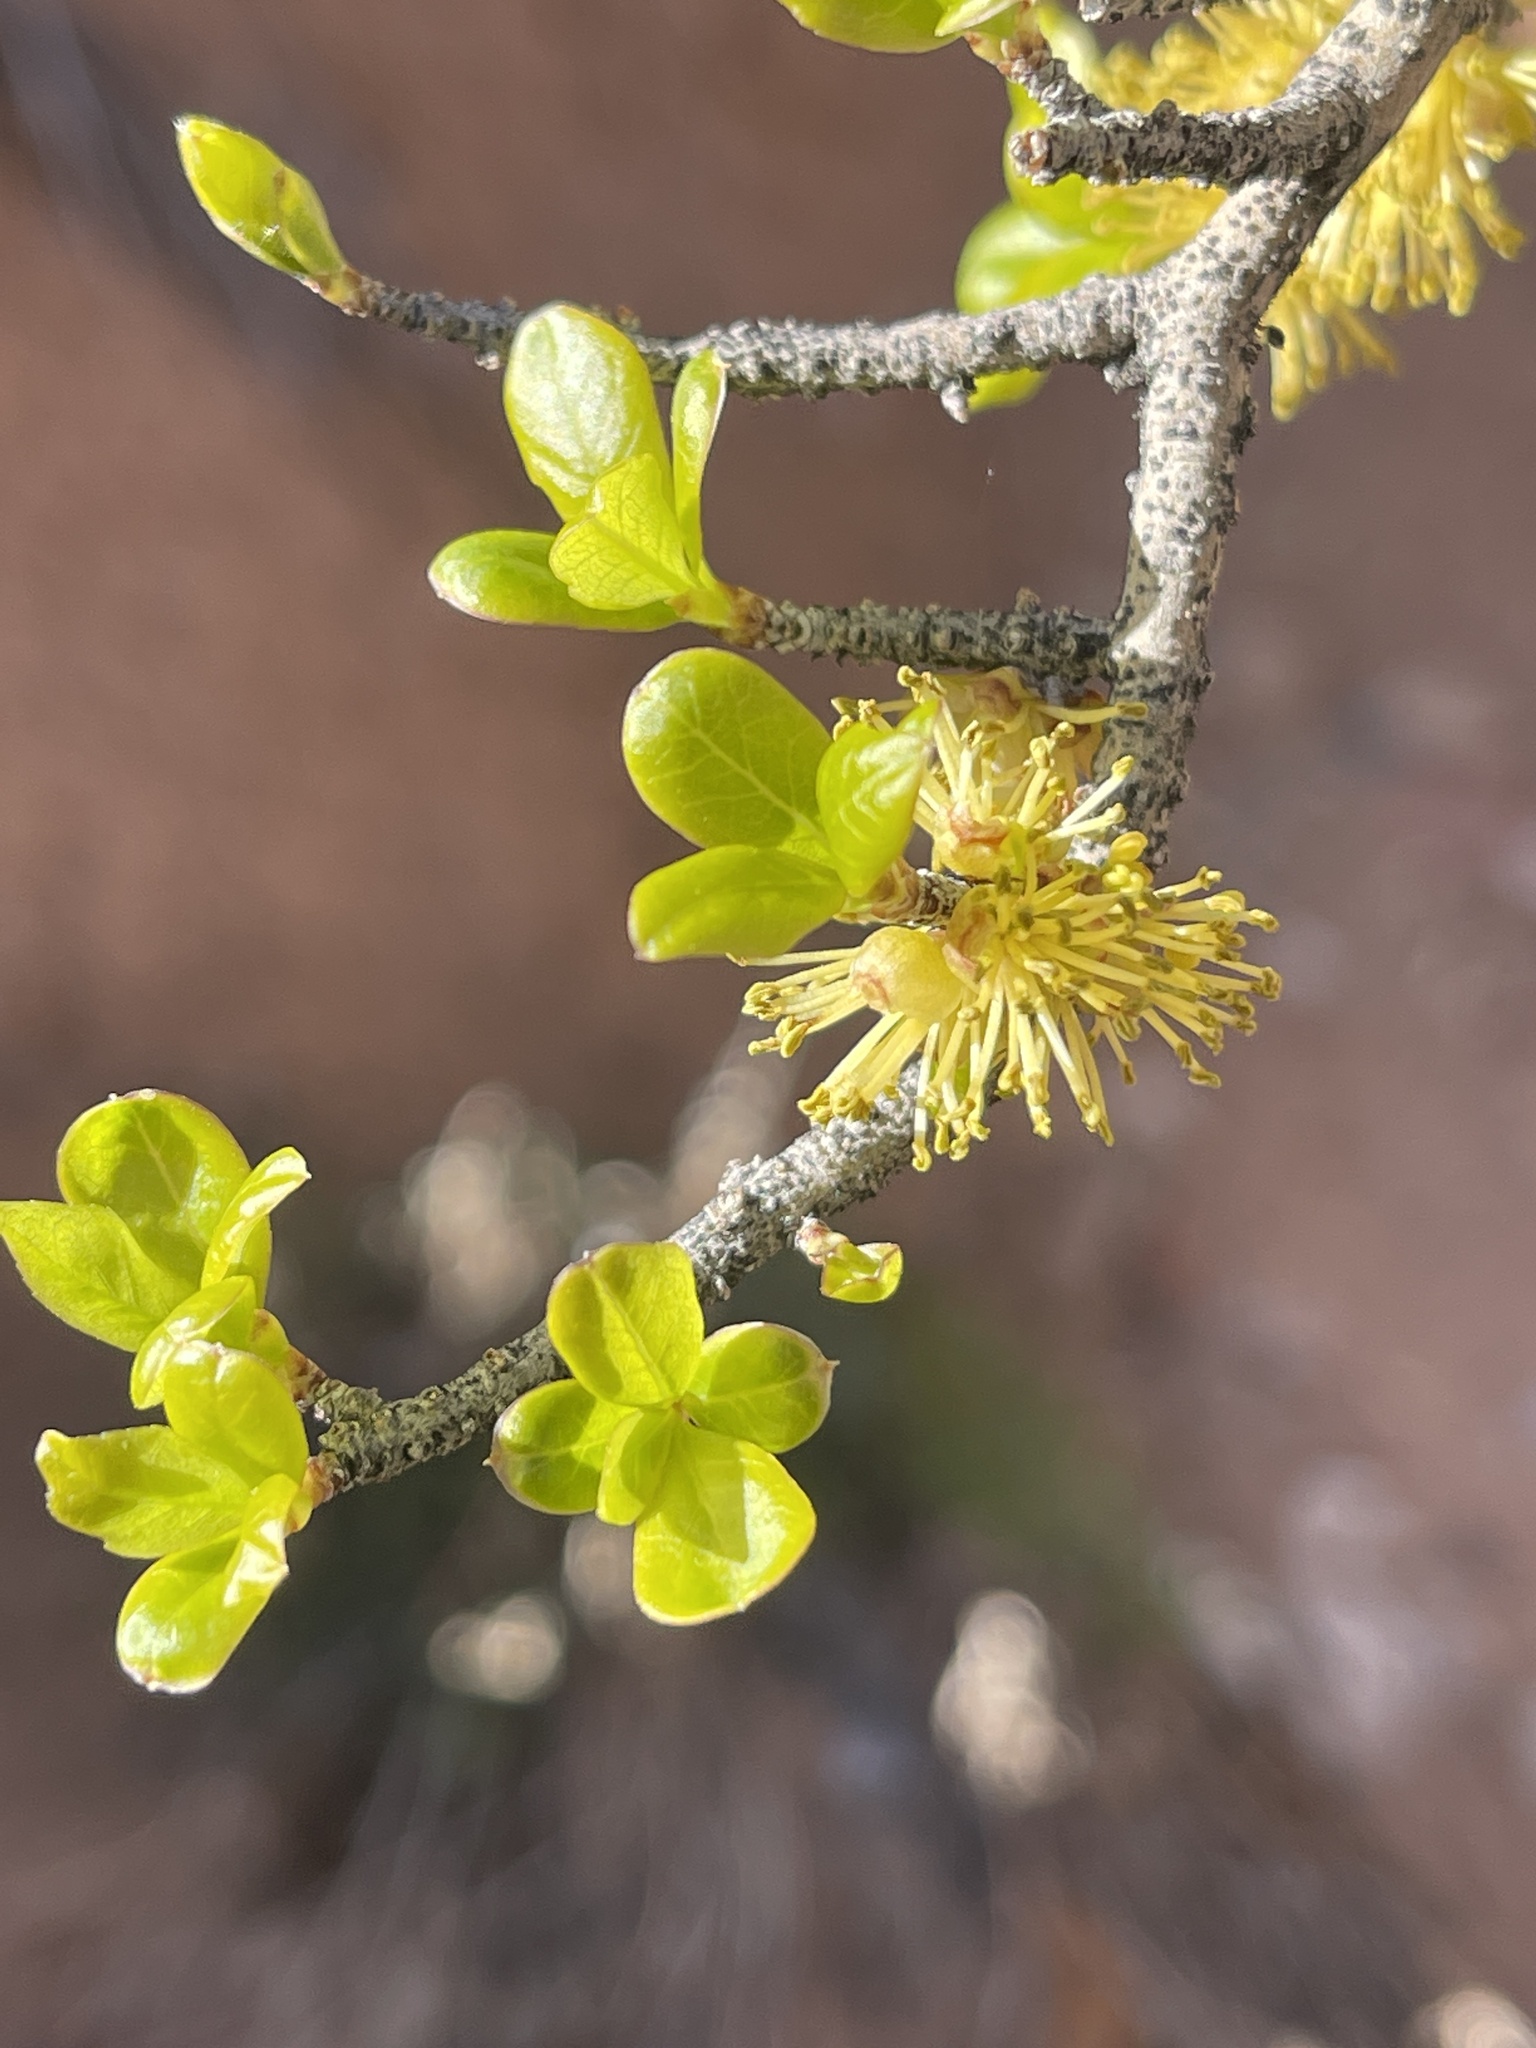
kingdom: Plantae
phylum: Tracheophyta
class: Magnoliopsida
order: Lamiales
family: Oleaceae
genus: Forestiera
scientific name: Forestiera pubescens
